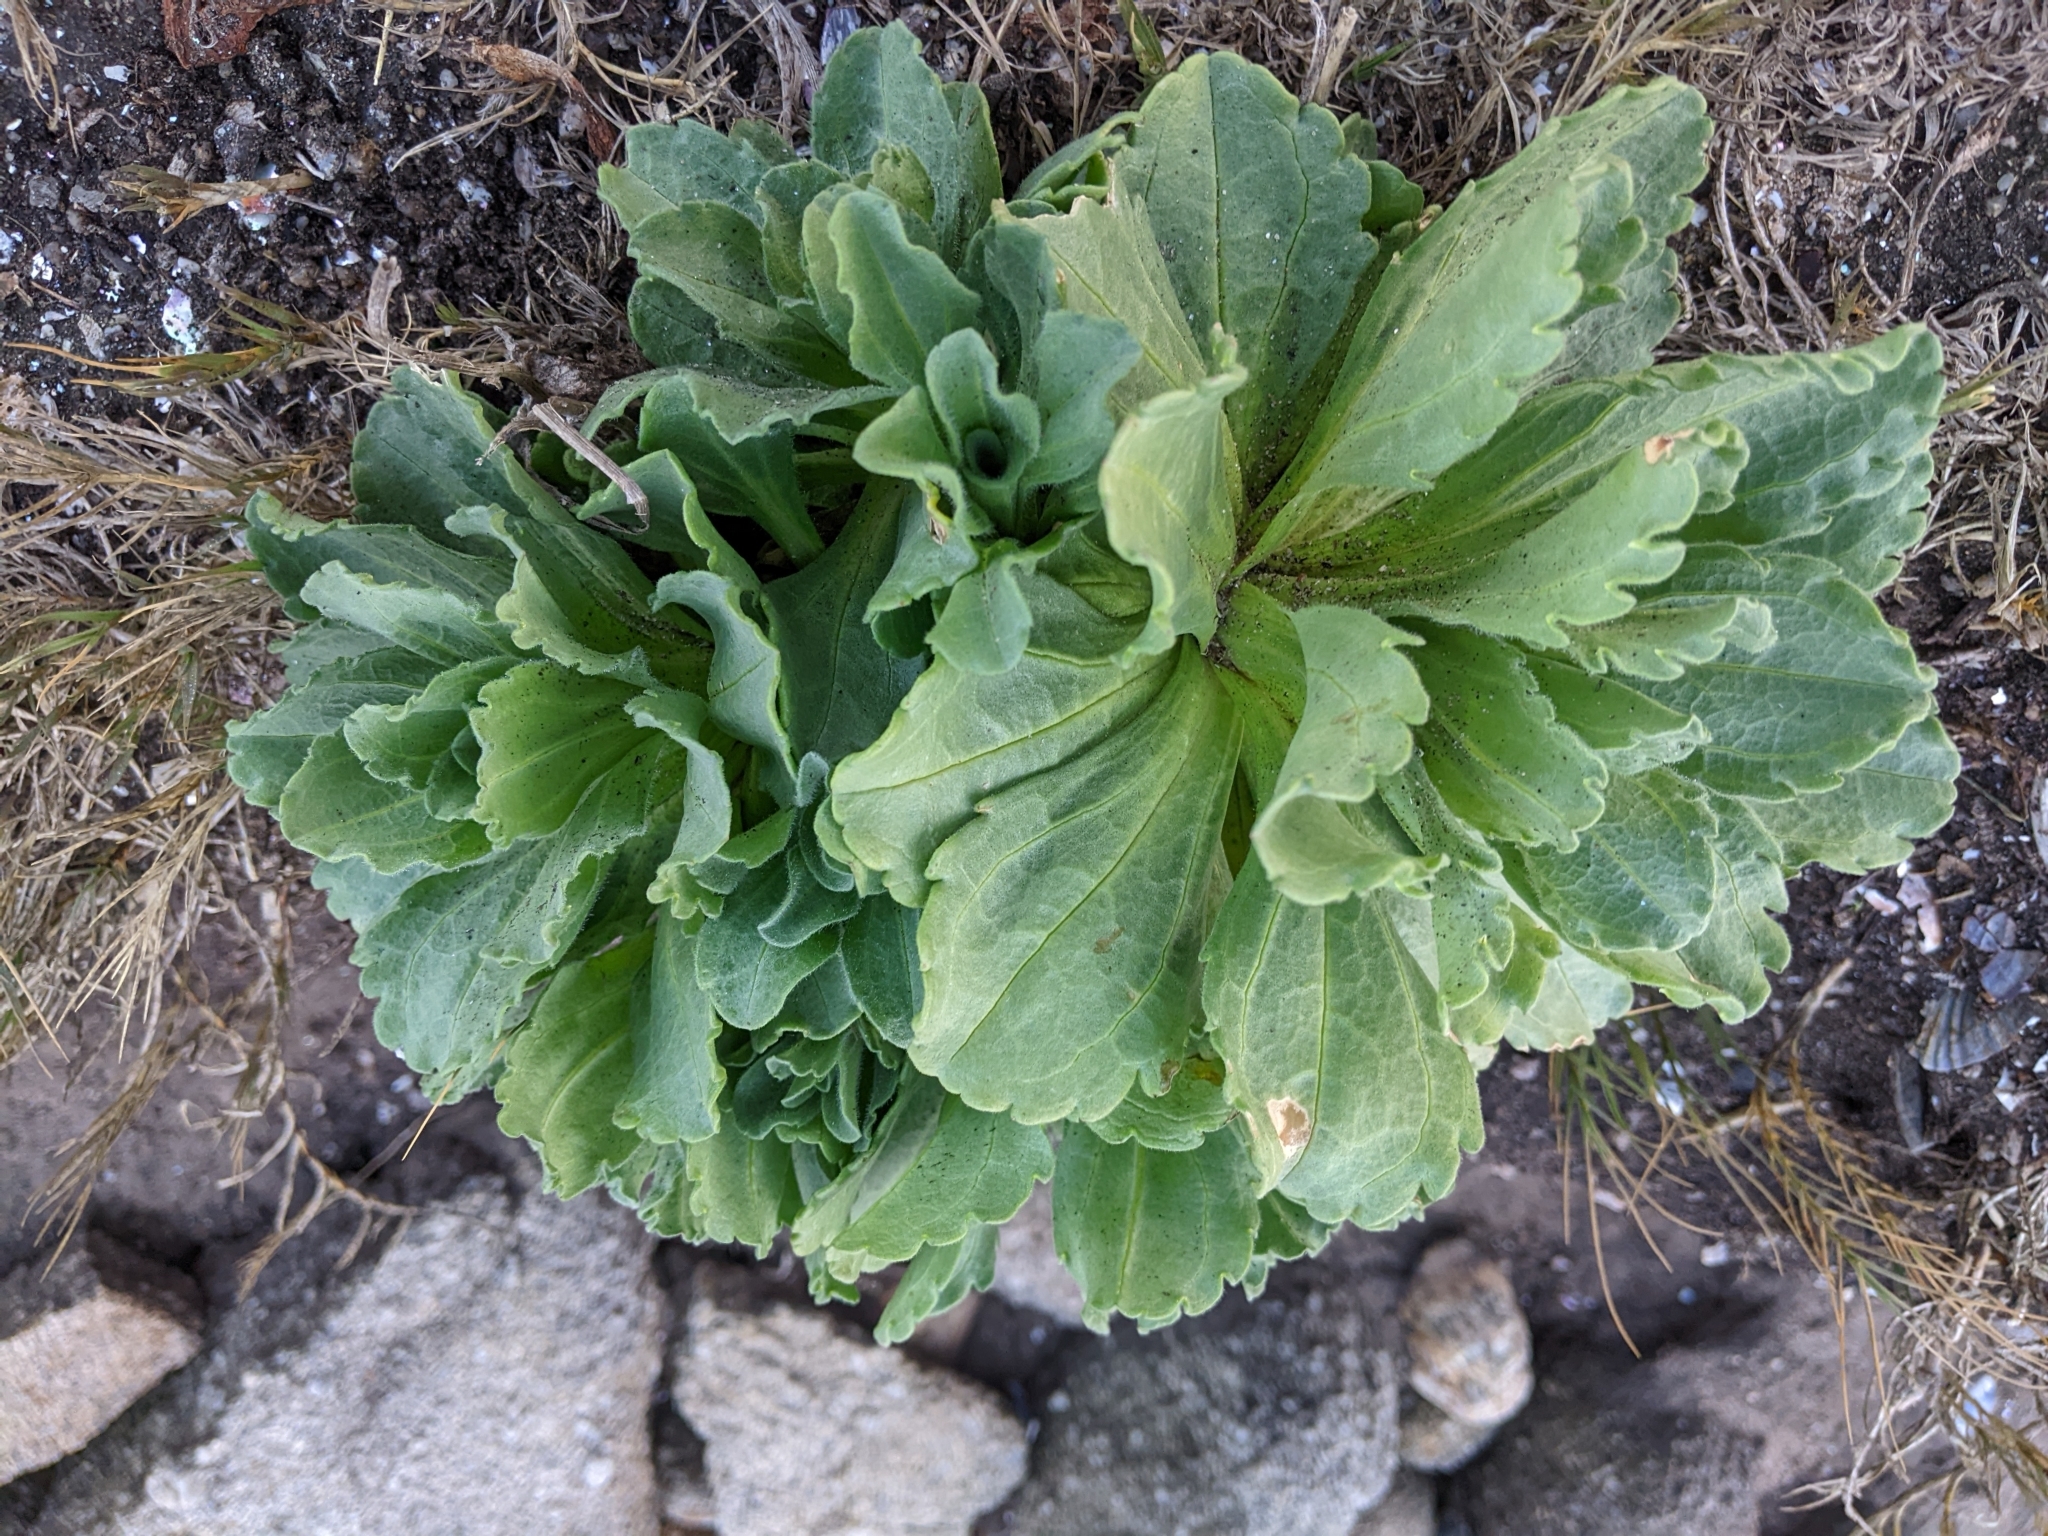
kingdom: Plantae
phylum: Tracheophyta
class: Magnoliopsida
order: Asterales
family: Asteraceae
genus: Erigeron
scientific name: Erigeron glaucus
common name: Seaside daisy
